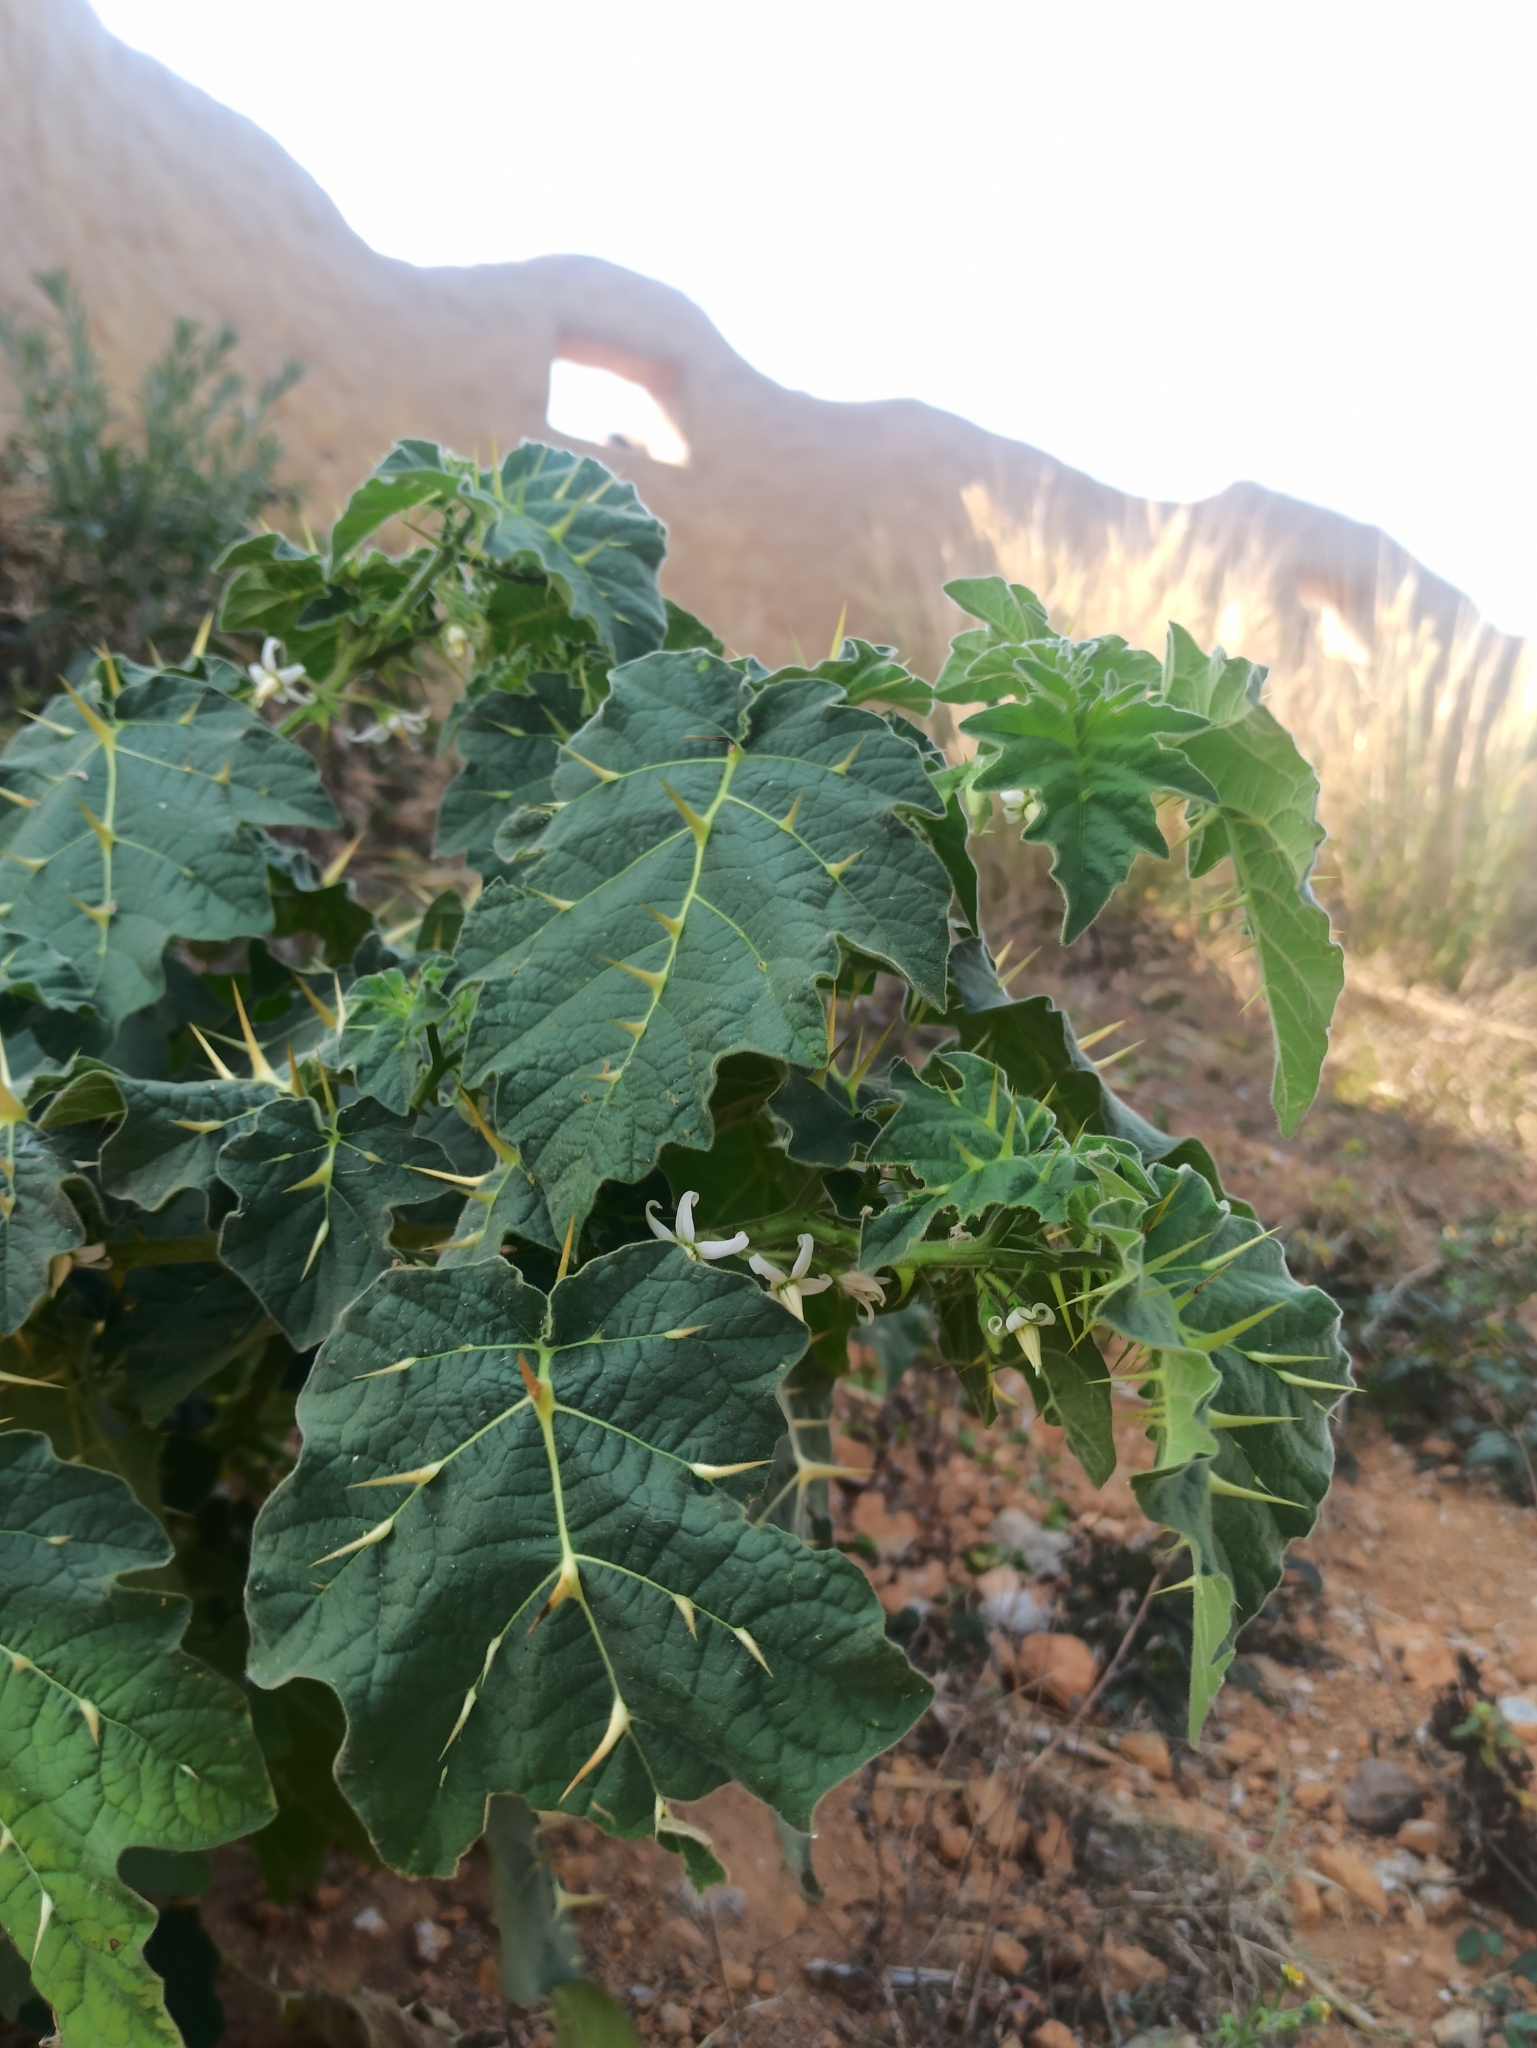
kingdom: Plantae
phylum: Tracheophyta
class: Magnoliopsida
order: Solanales
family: Solanaceae
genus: Solanum
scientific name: Solanum viarum
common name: Tropical soda apple
